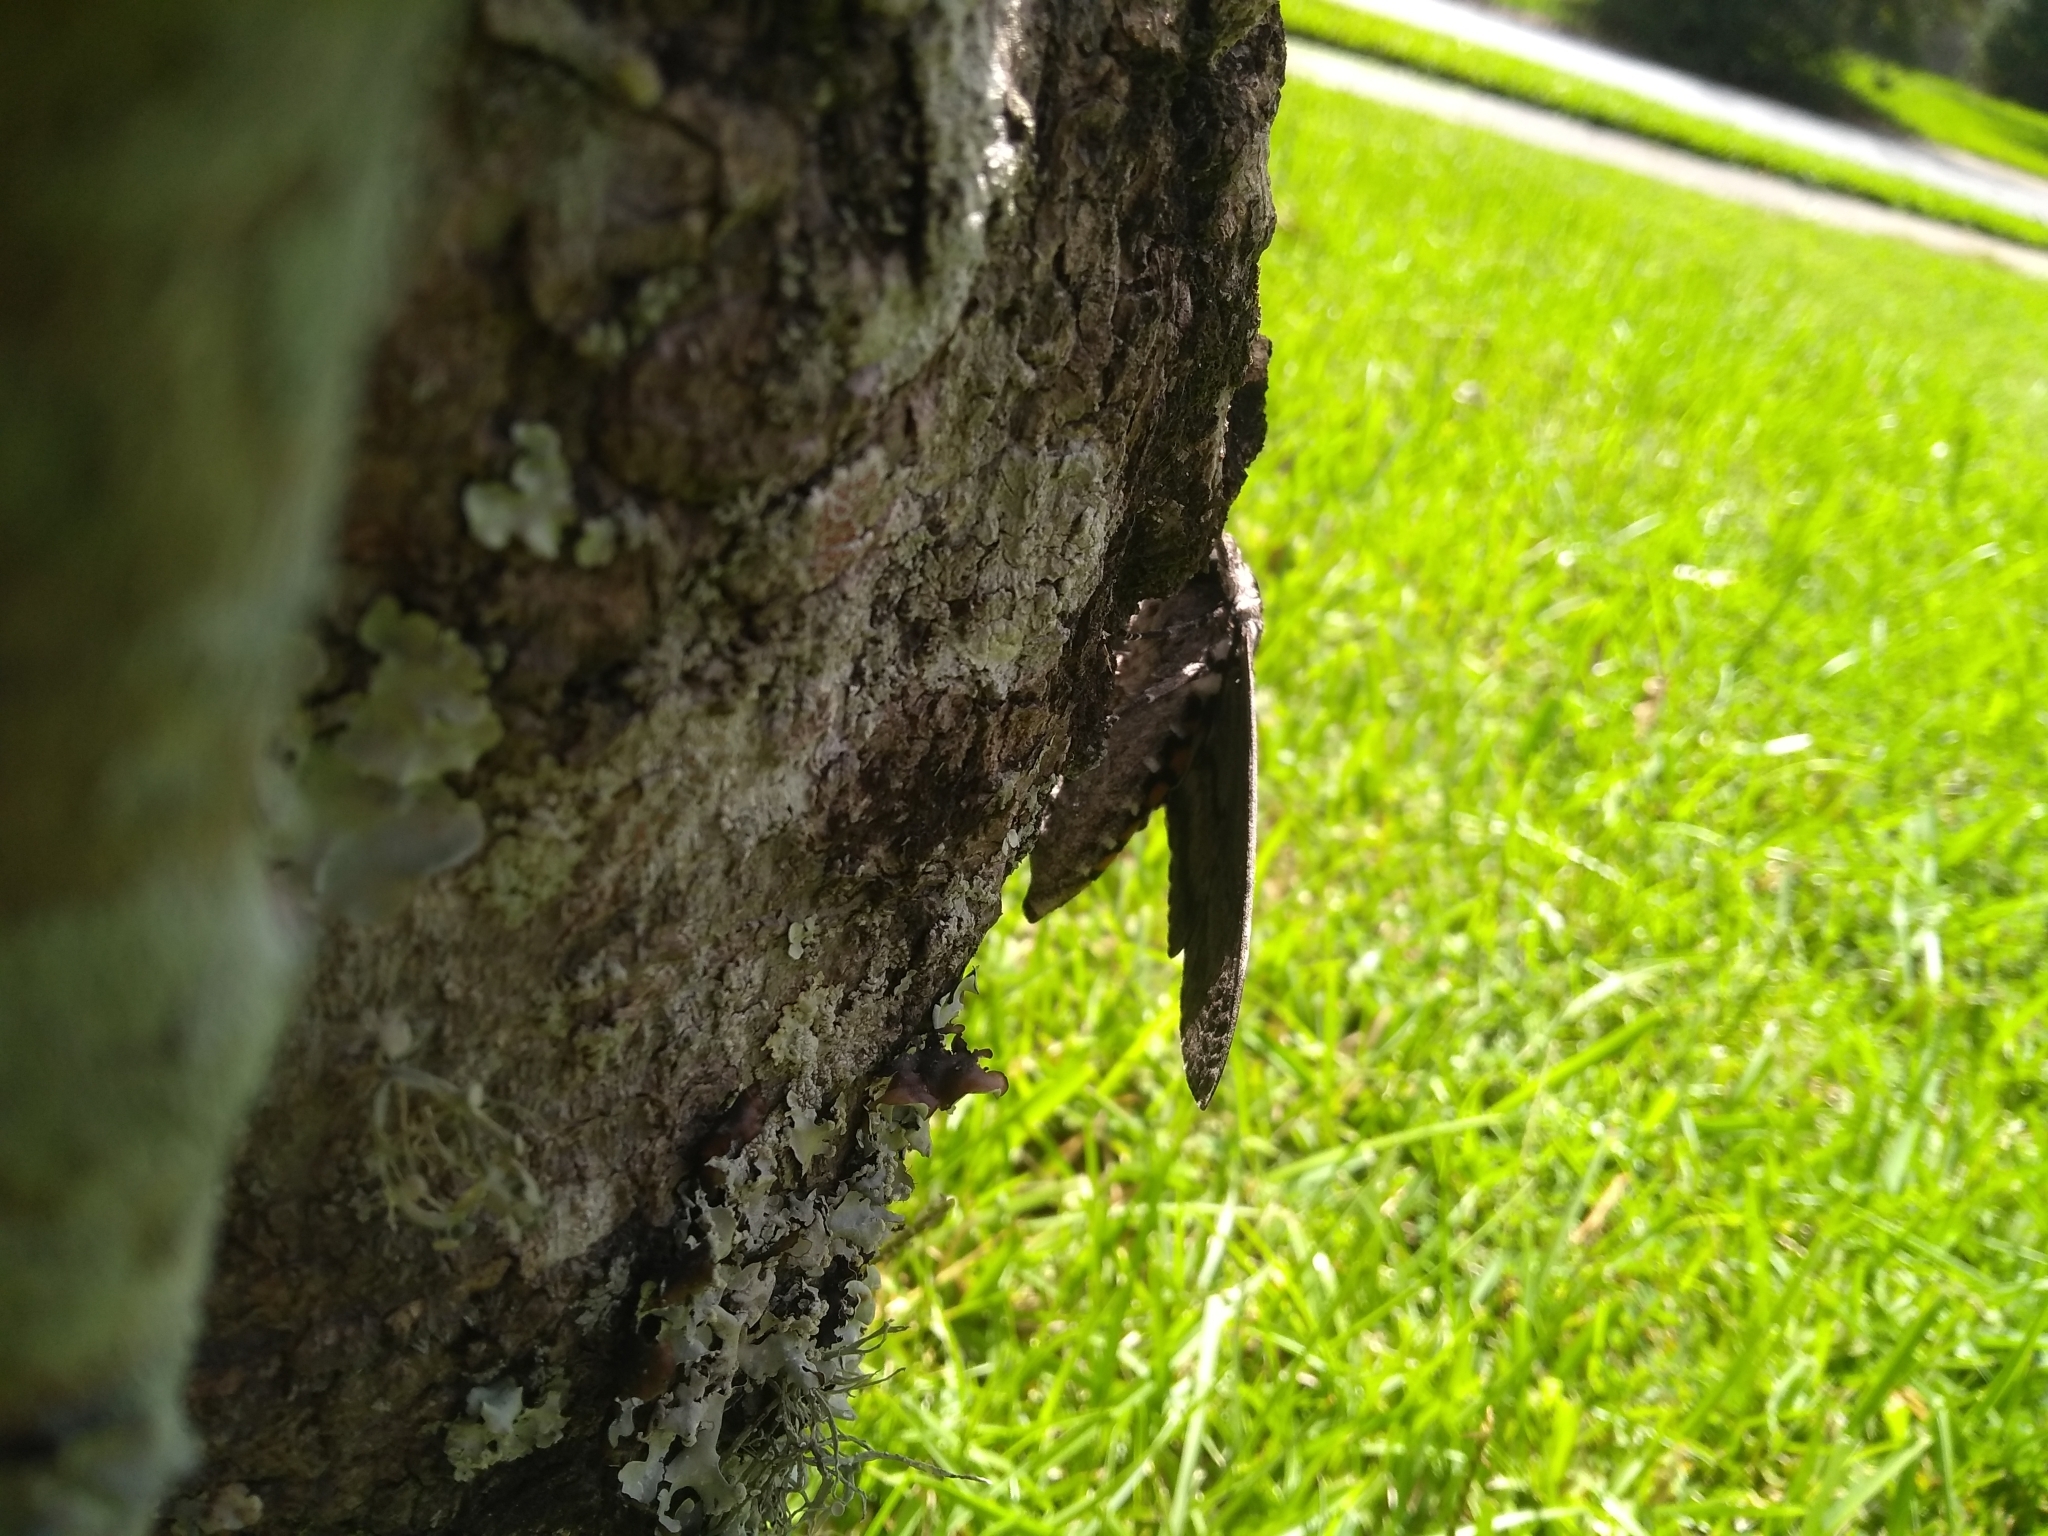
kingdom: Animalia
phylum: Arthropoda
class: Insecta
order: Lepidoptera
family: Sphingidae
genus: Manduca
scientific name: Manduca sexta
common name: Carolina sphinx
